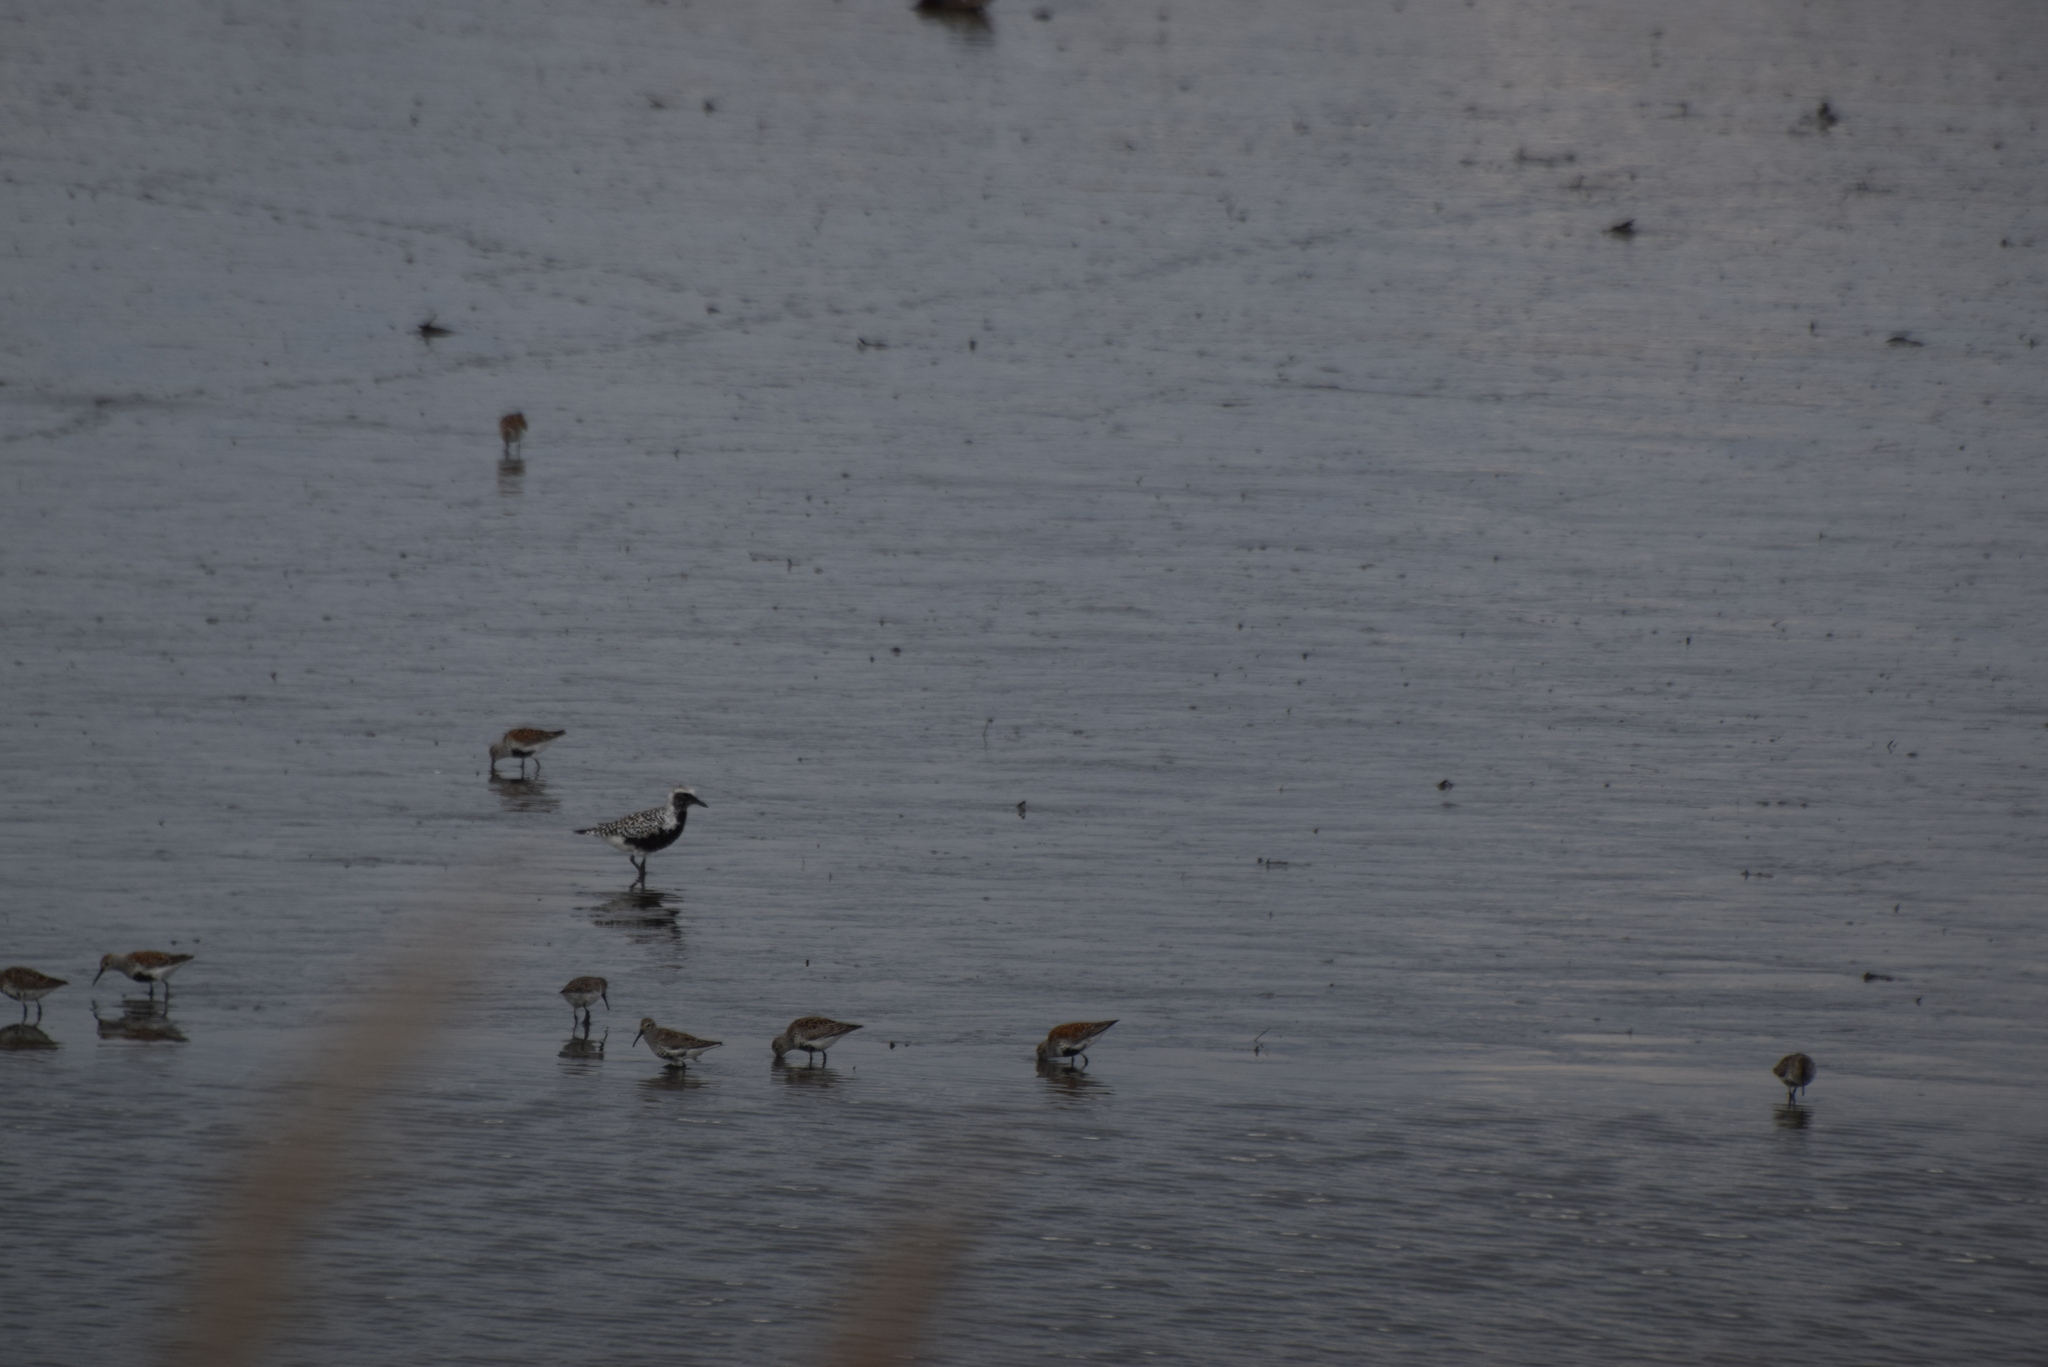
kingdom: Animalia
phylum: Chordata
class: Aves
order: Charadriiformes
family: Charadriidae
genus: Pluvialis
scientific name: Pluvialis squatarola
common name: Grey plover
